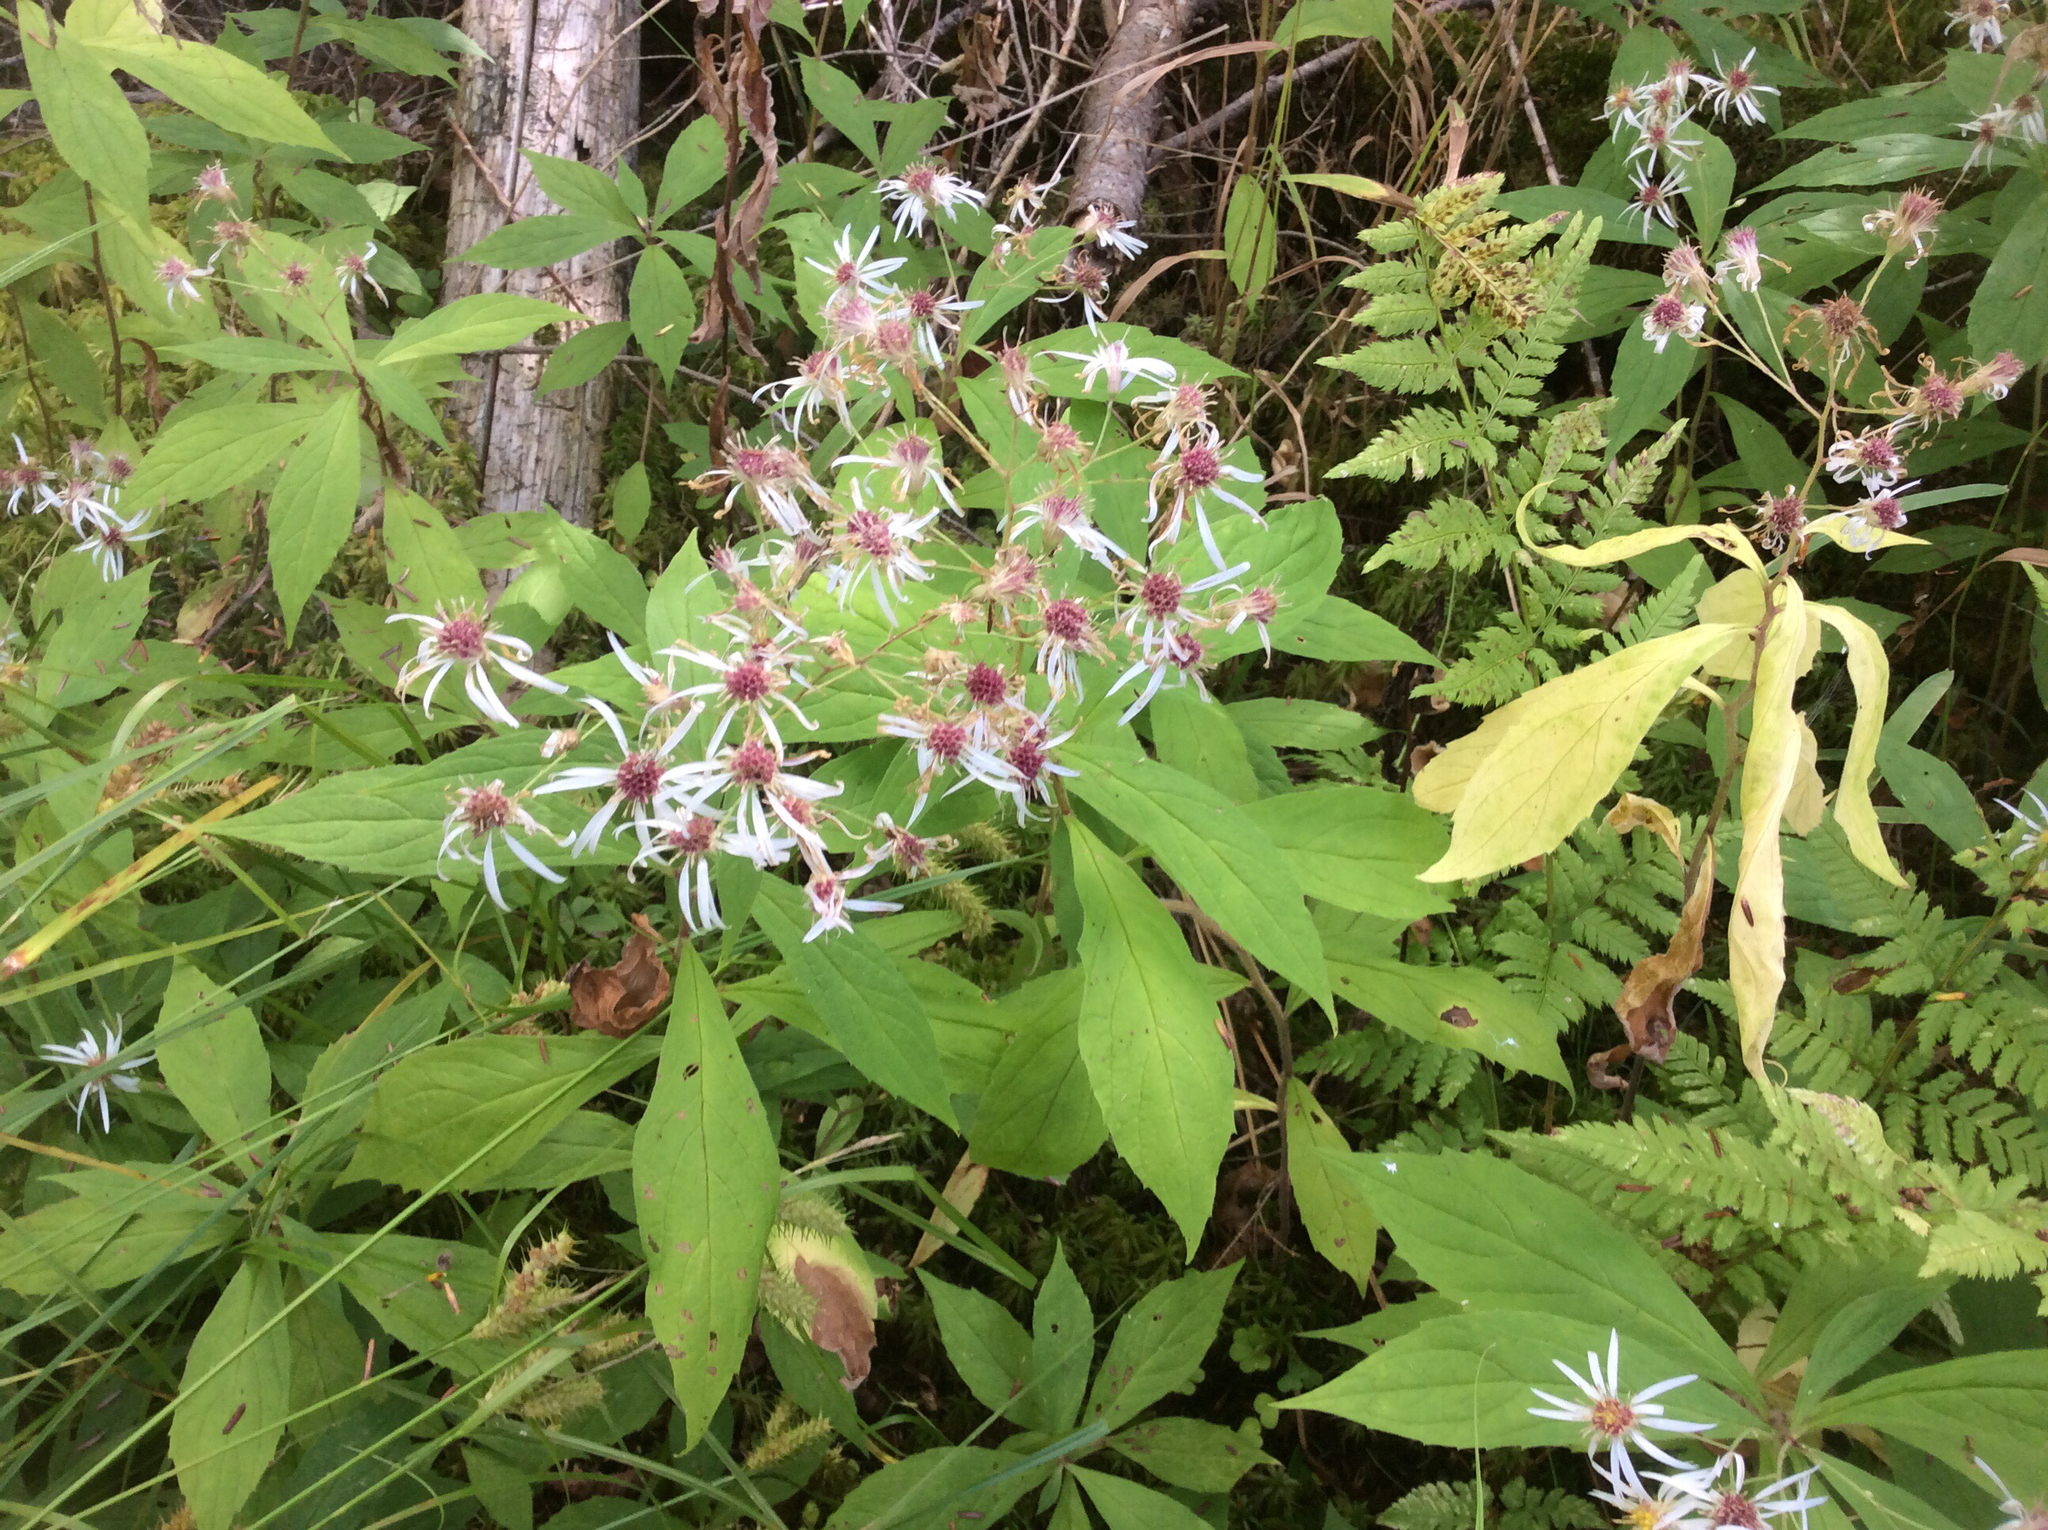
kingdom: Plantae
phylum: Tracheophyta
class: Magnoliopsida
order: Asterales
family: Asteraceae
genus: Oclemena
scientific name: Oclemena acuminata
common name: Mountain aster
